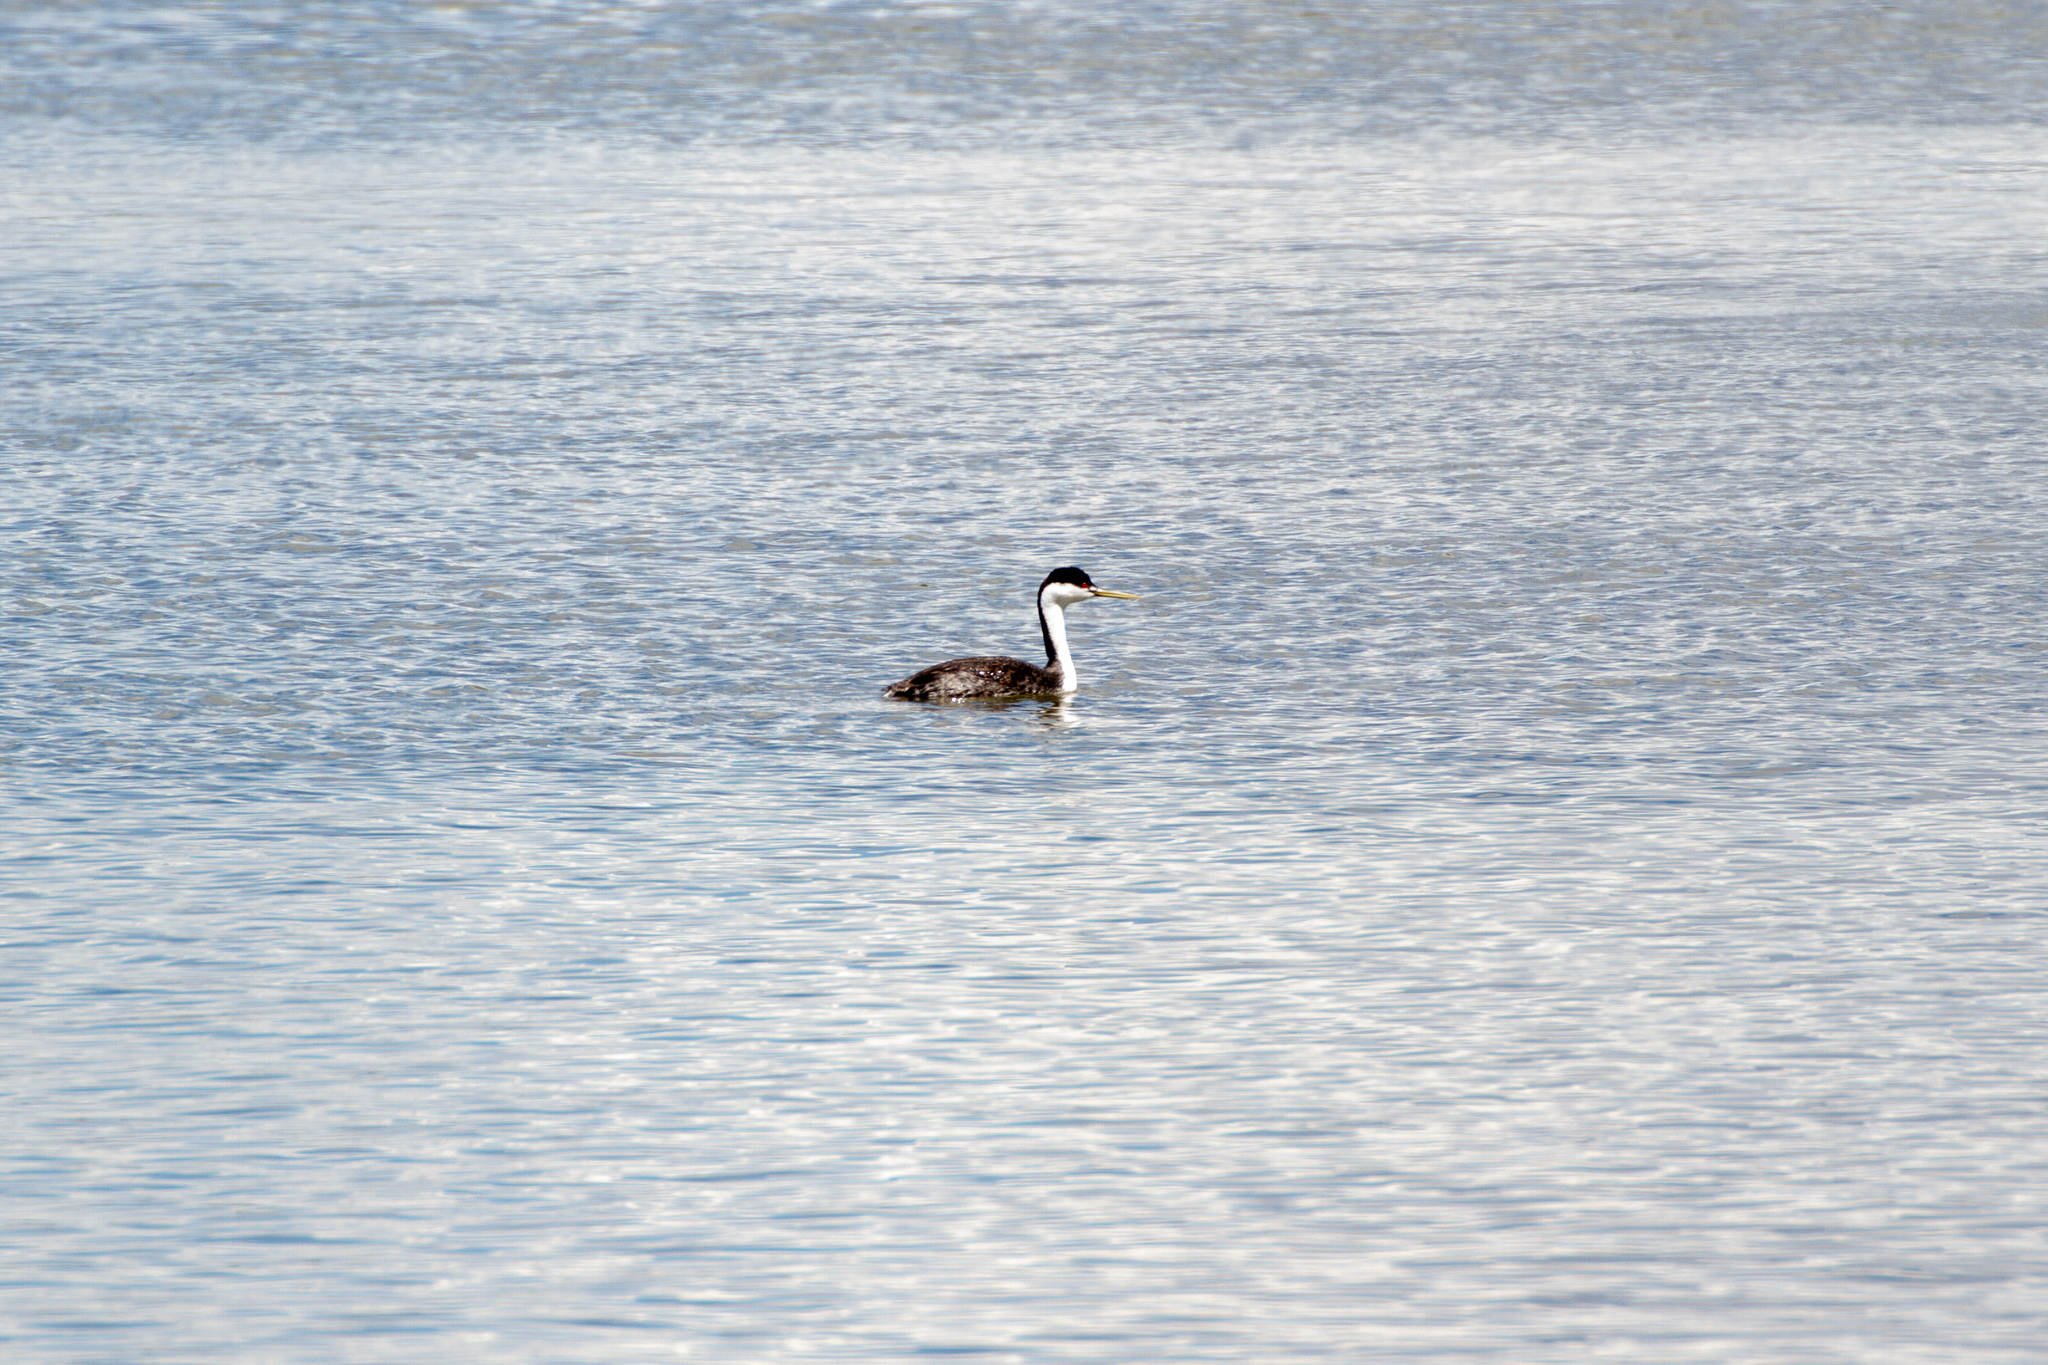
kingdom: Animalia
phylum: Chordata
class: Aves
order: Podicipediformes
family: Podicipedidae
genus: Aechmophorus
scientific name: Aechmophorus occidentalis
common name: Western grebe
